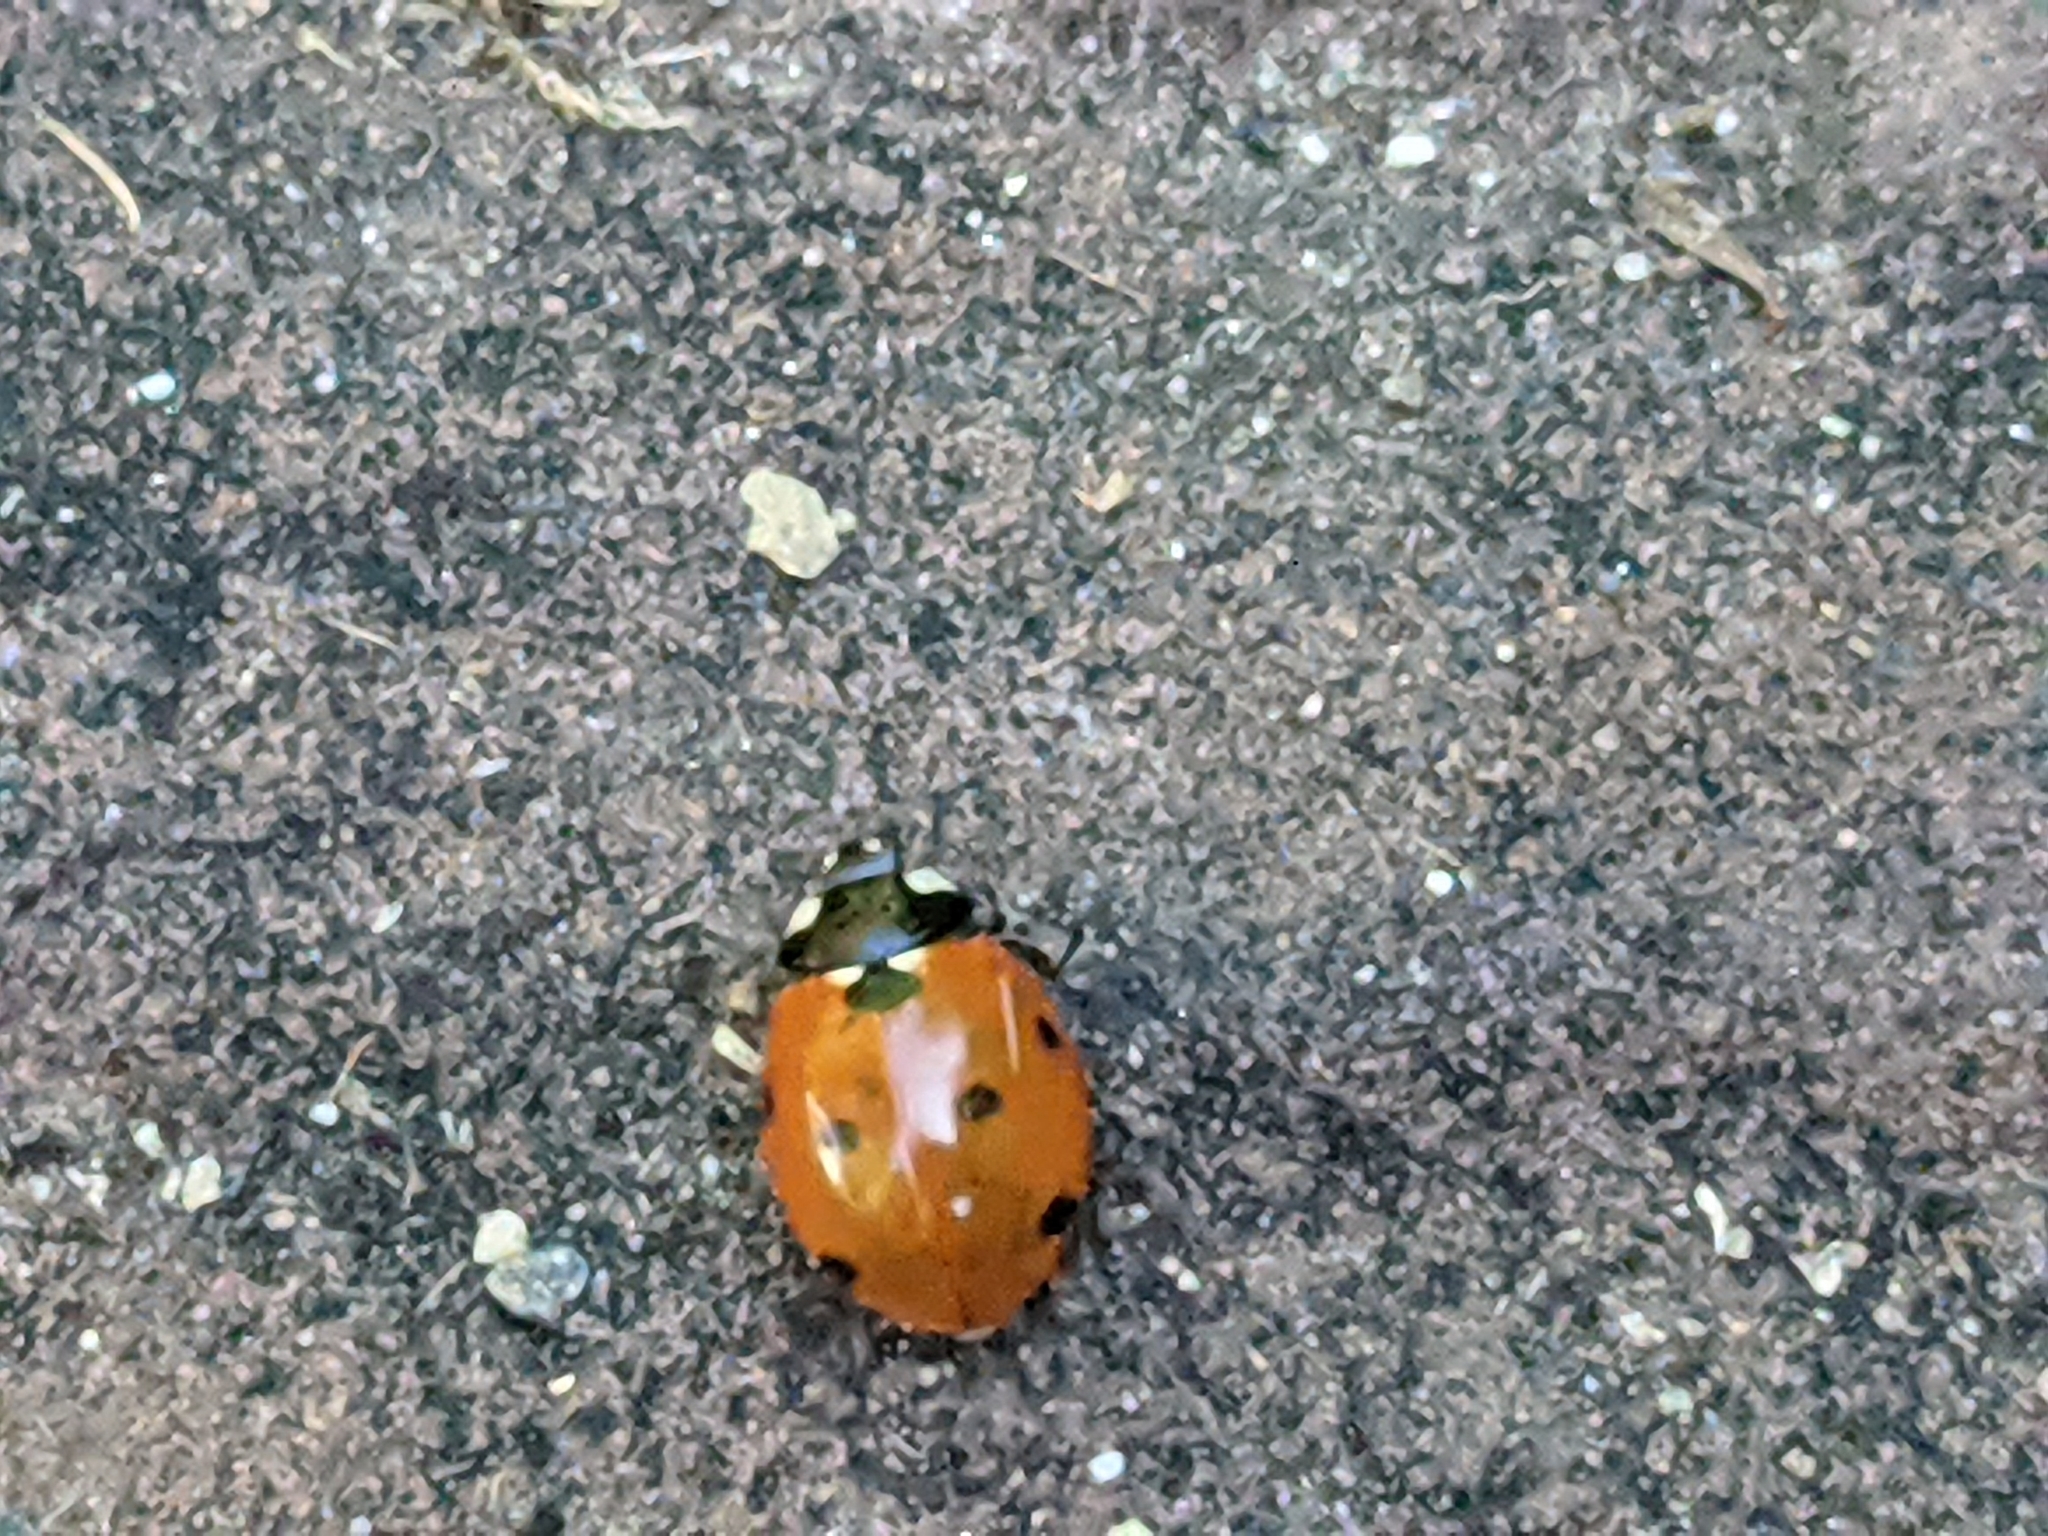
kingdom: Animalia
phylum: Arthropoda
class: Insecta
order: Coleoptera
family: Coccinellidae
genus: Coccinella
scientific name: Coccinella septempunctata
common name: Sevenspotted lady beetle
